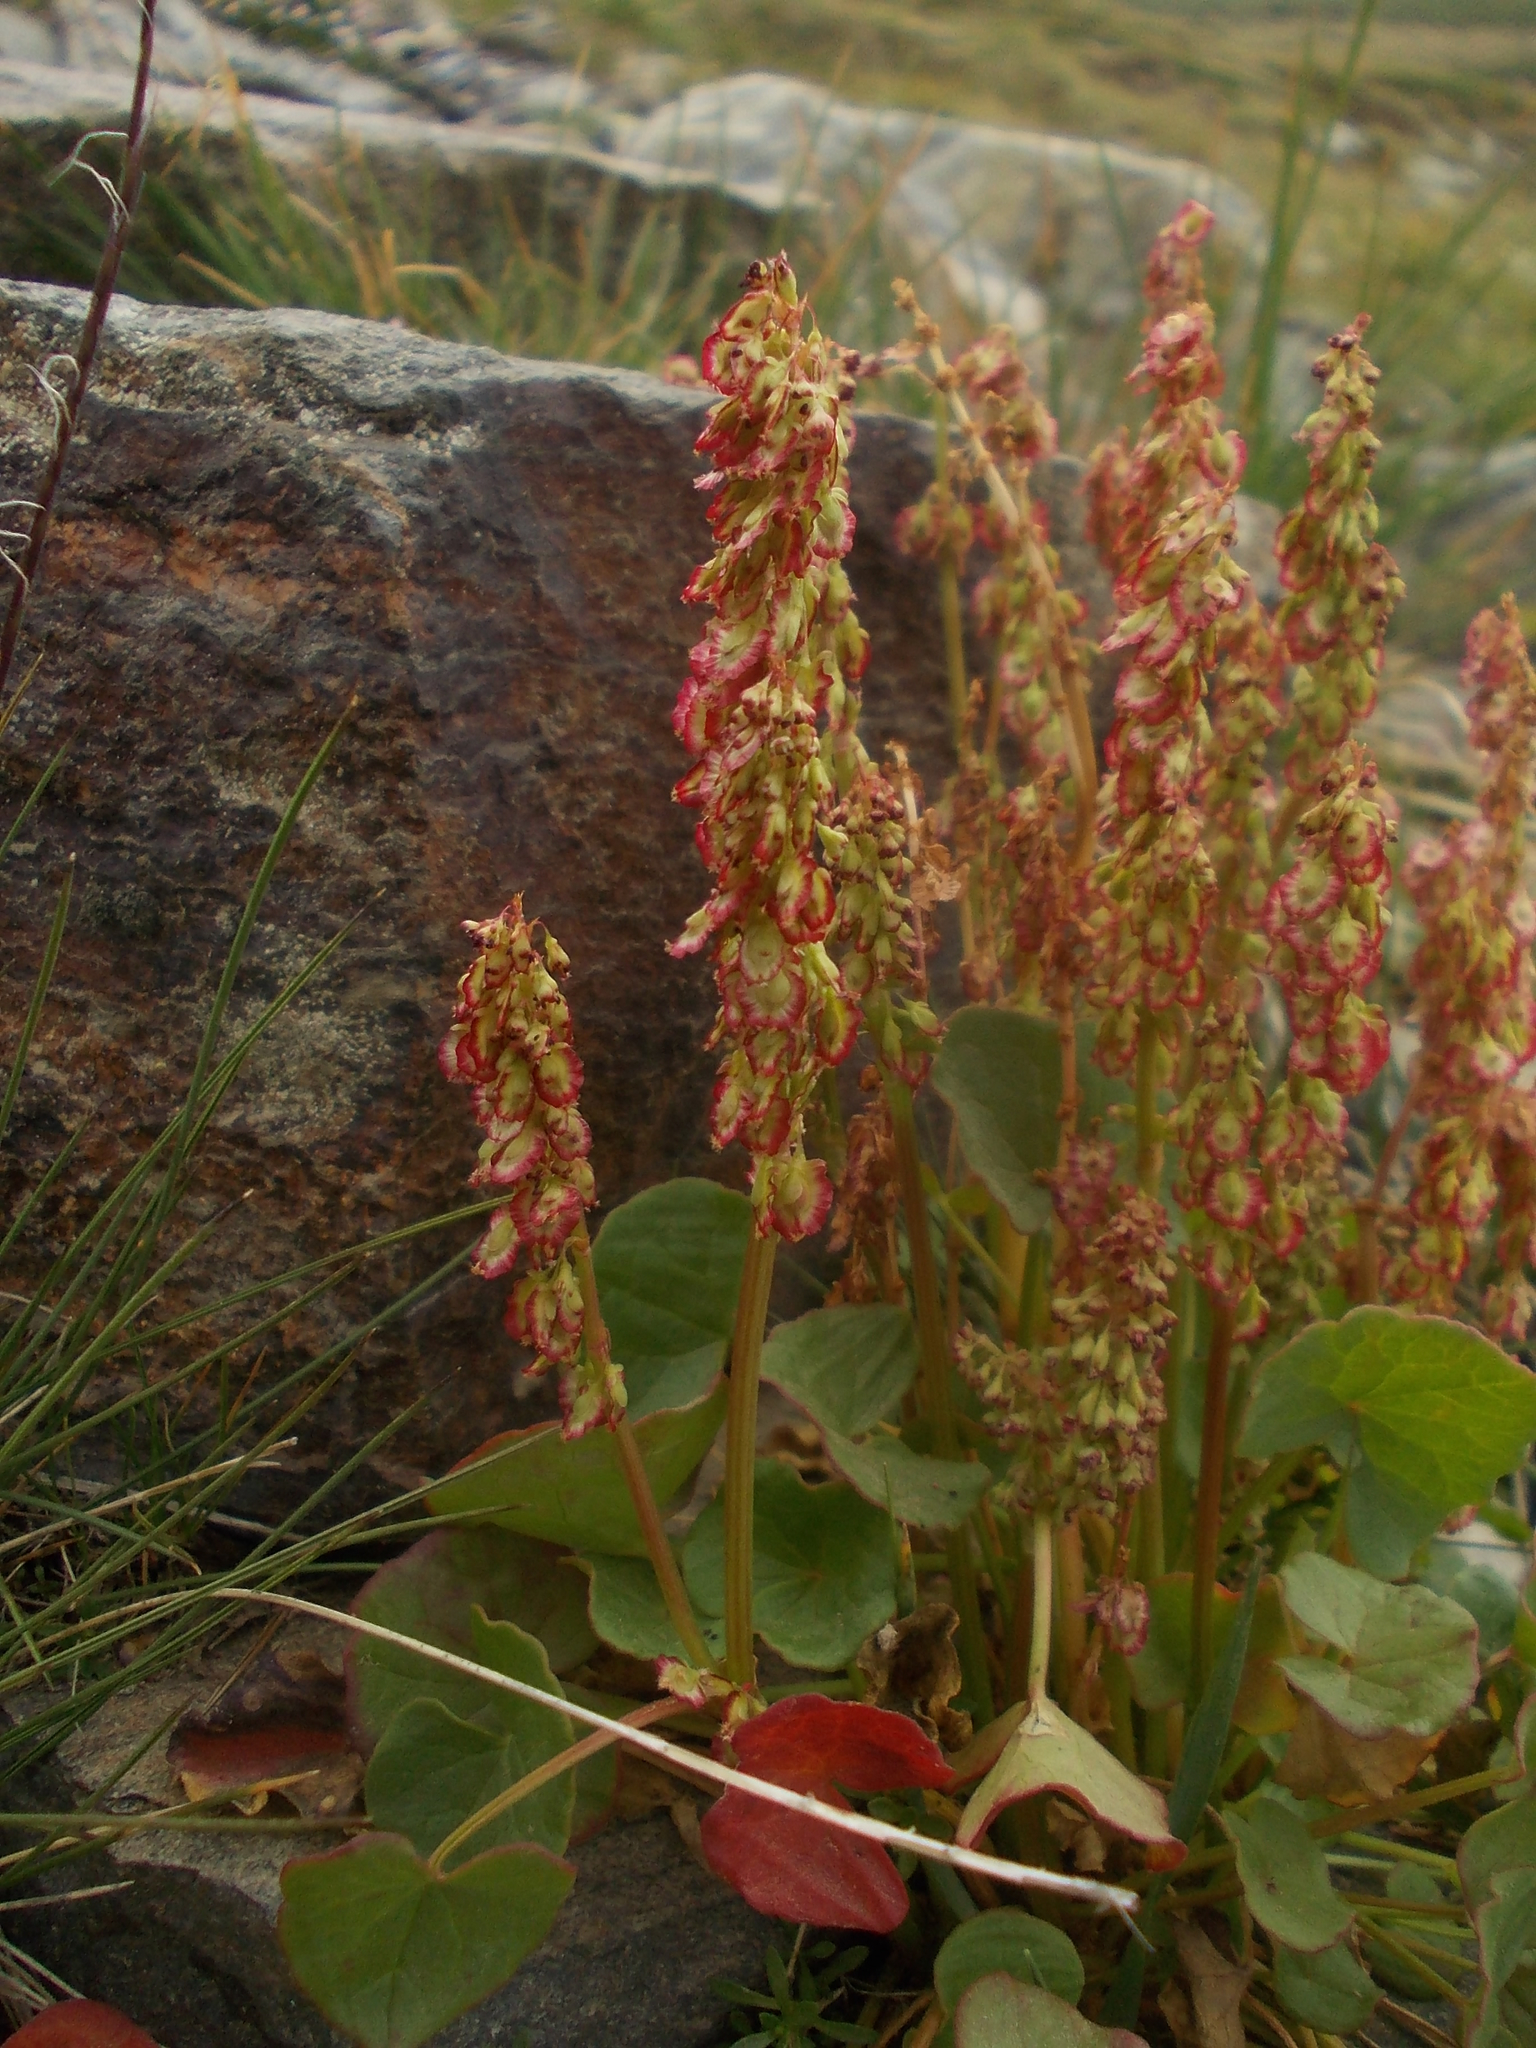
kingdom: Plantae
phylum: Tracheophyta
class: Magnoliopsida
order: Caryophyllales
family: Polygonaceae
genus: Oxyria
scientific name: Oxyria digyna
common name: Alpine mountain-sorrel
